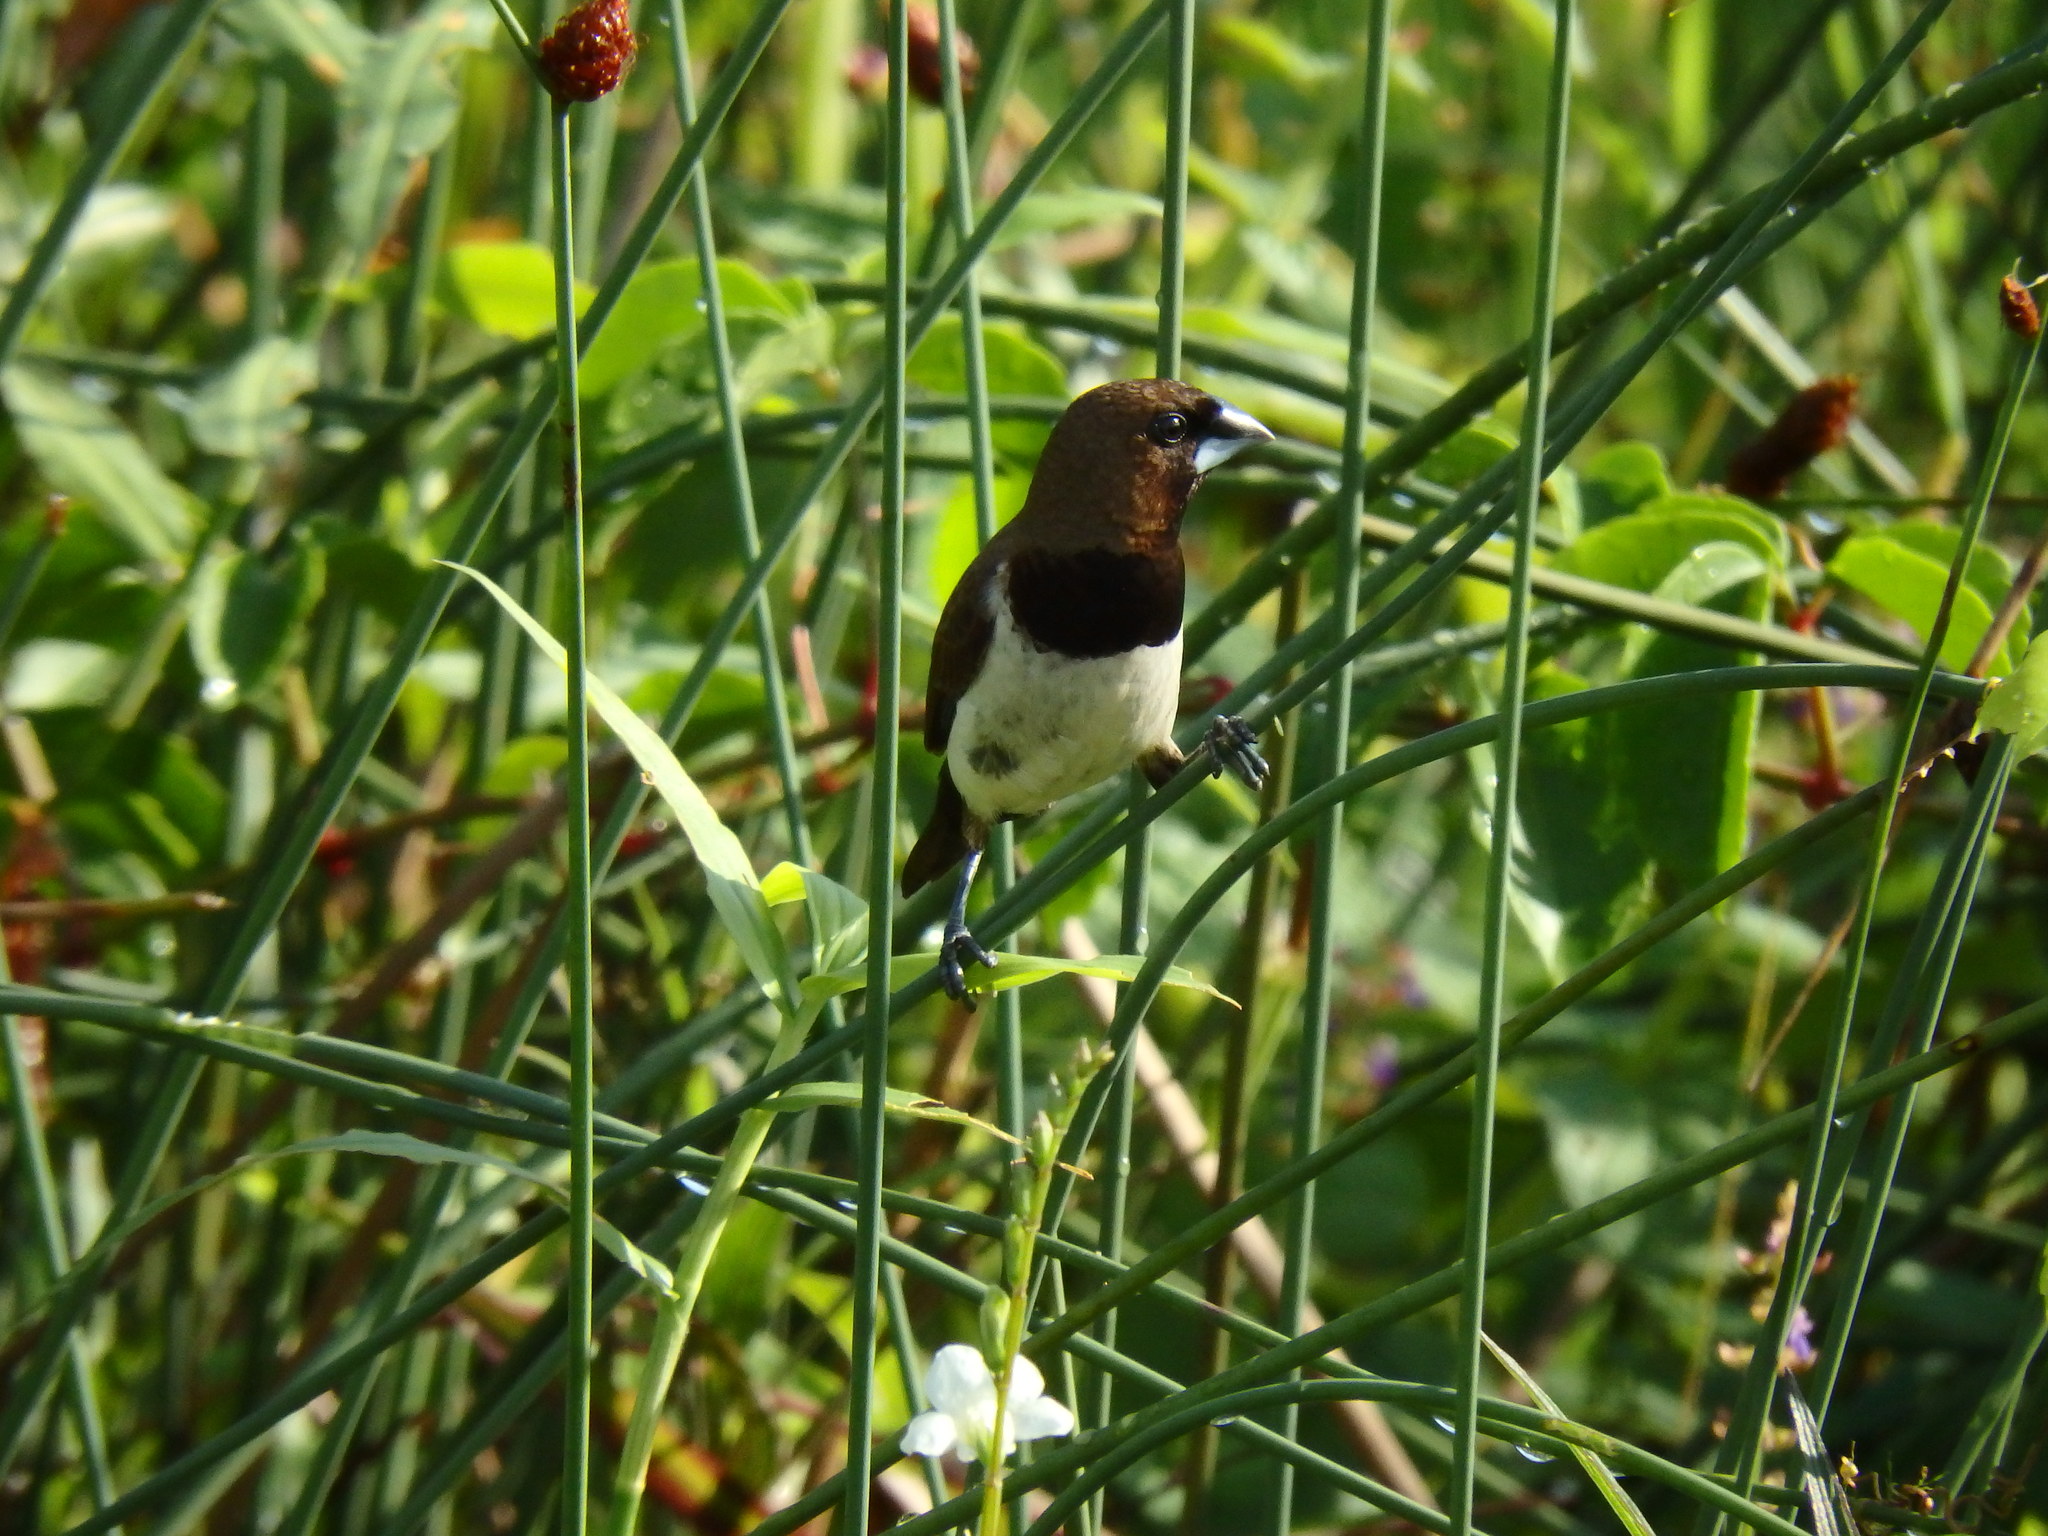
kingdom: Animalia
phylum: Chordata
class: Aves
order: Passeriformes
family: Estrildidae
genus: Lonchura
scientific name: Lonchura leucogastroides
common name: Javan munia
